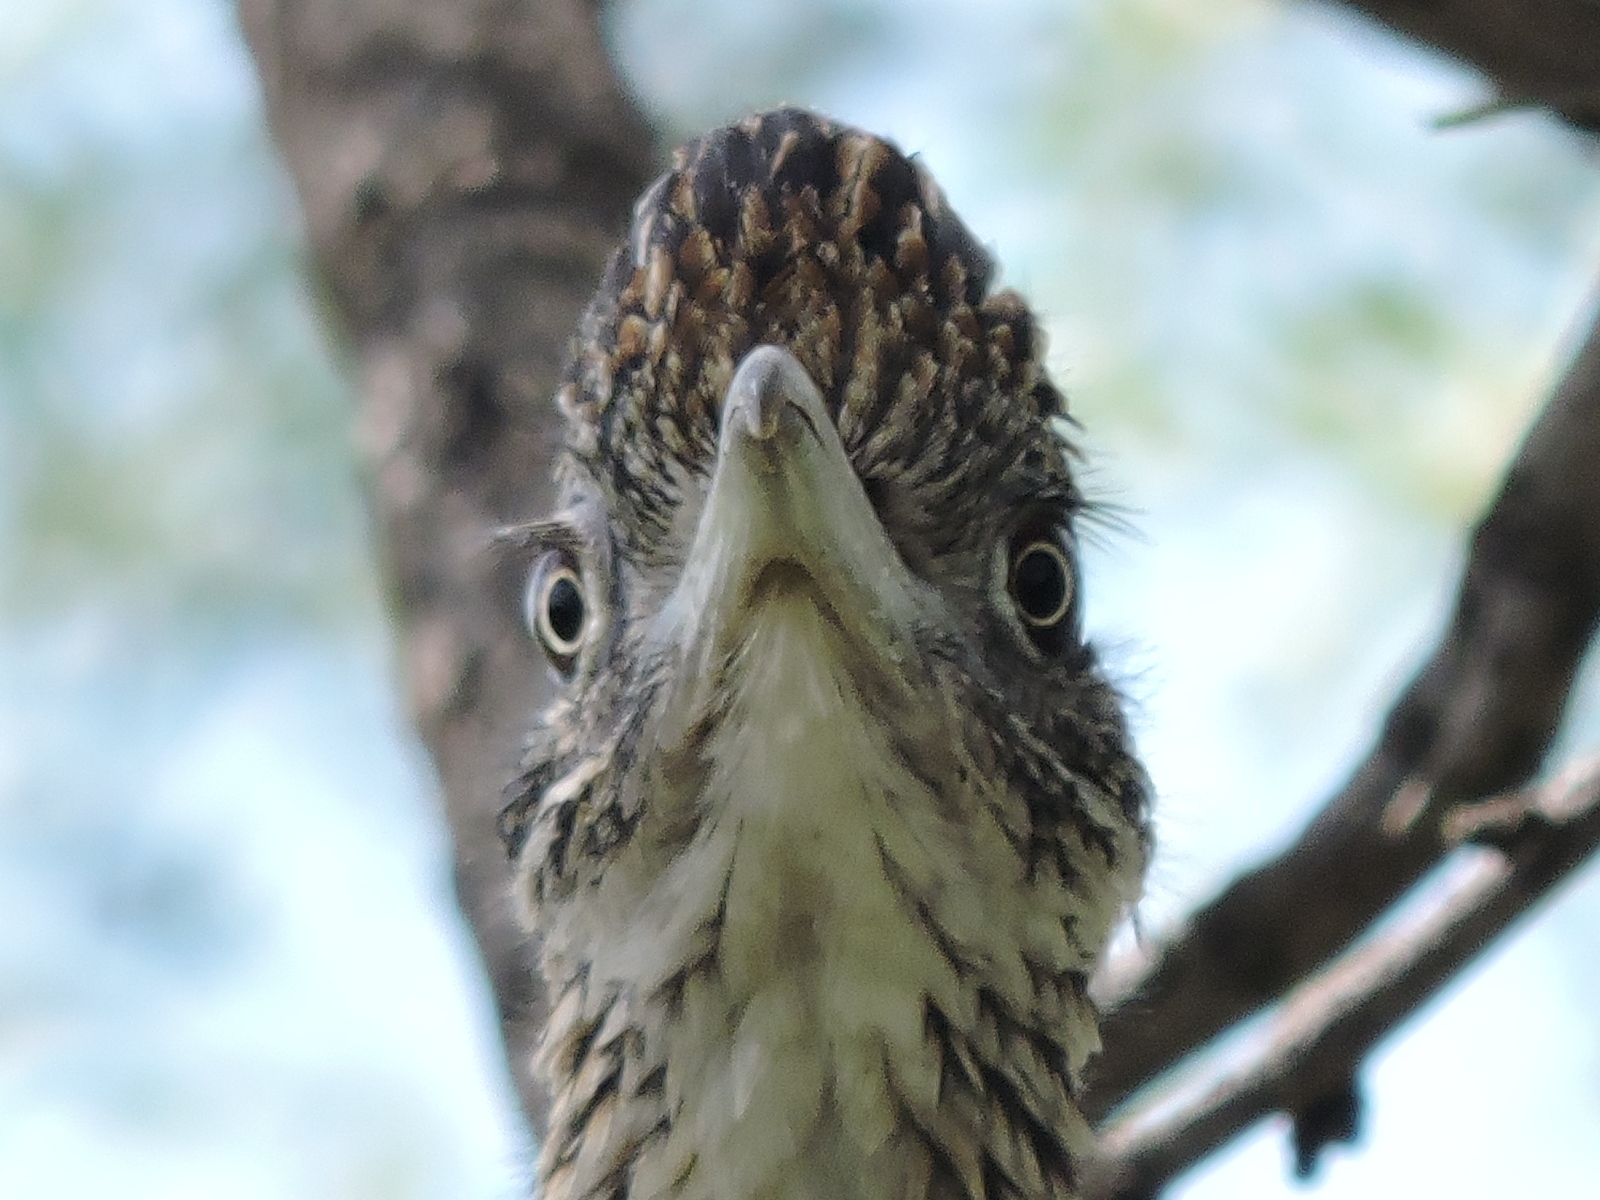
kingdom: Animalia
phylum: Chordata
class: Aves
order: Cuculiformes
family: Cuculidae
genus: Geococcyx
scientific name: Geococcyx californianus
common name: Greater roadrunner
